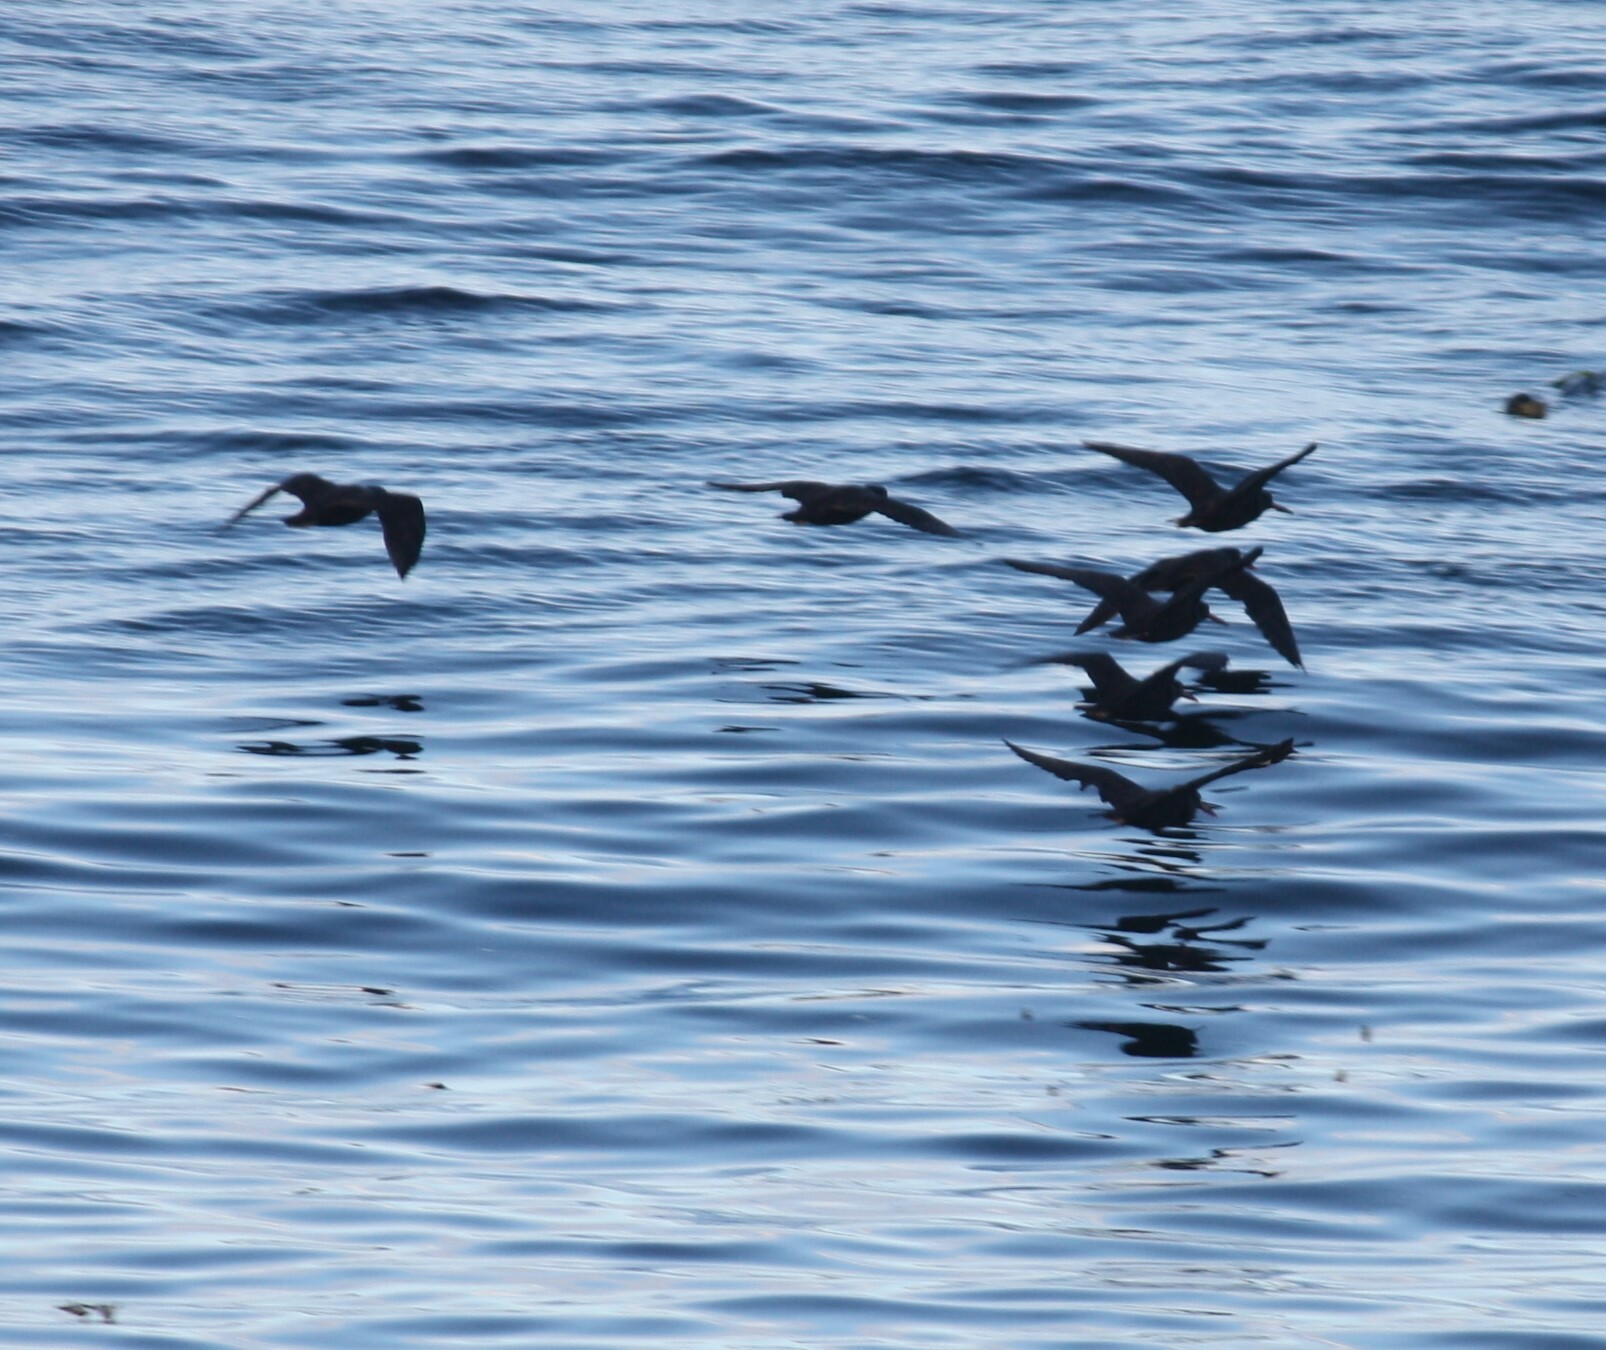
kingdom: Animalia
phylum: Chordata
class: Aves
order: Charadriiformes
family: Haematopodidae
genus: Haematopus
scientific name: Haematopus bachmani
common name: Black oystercatcher
